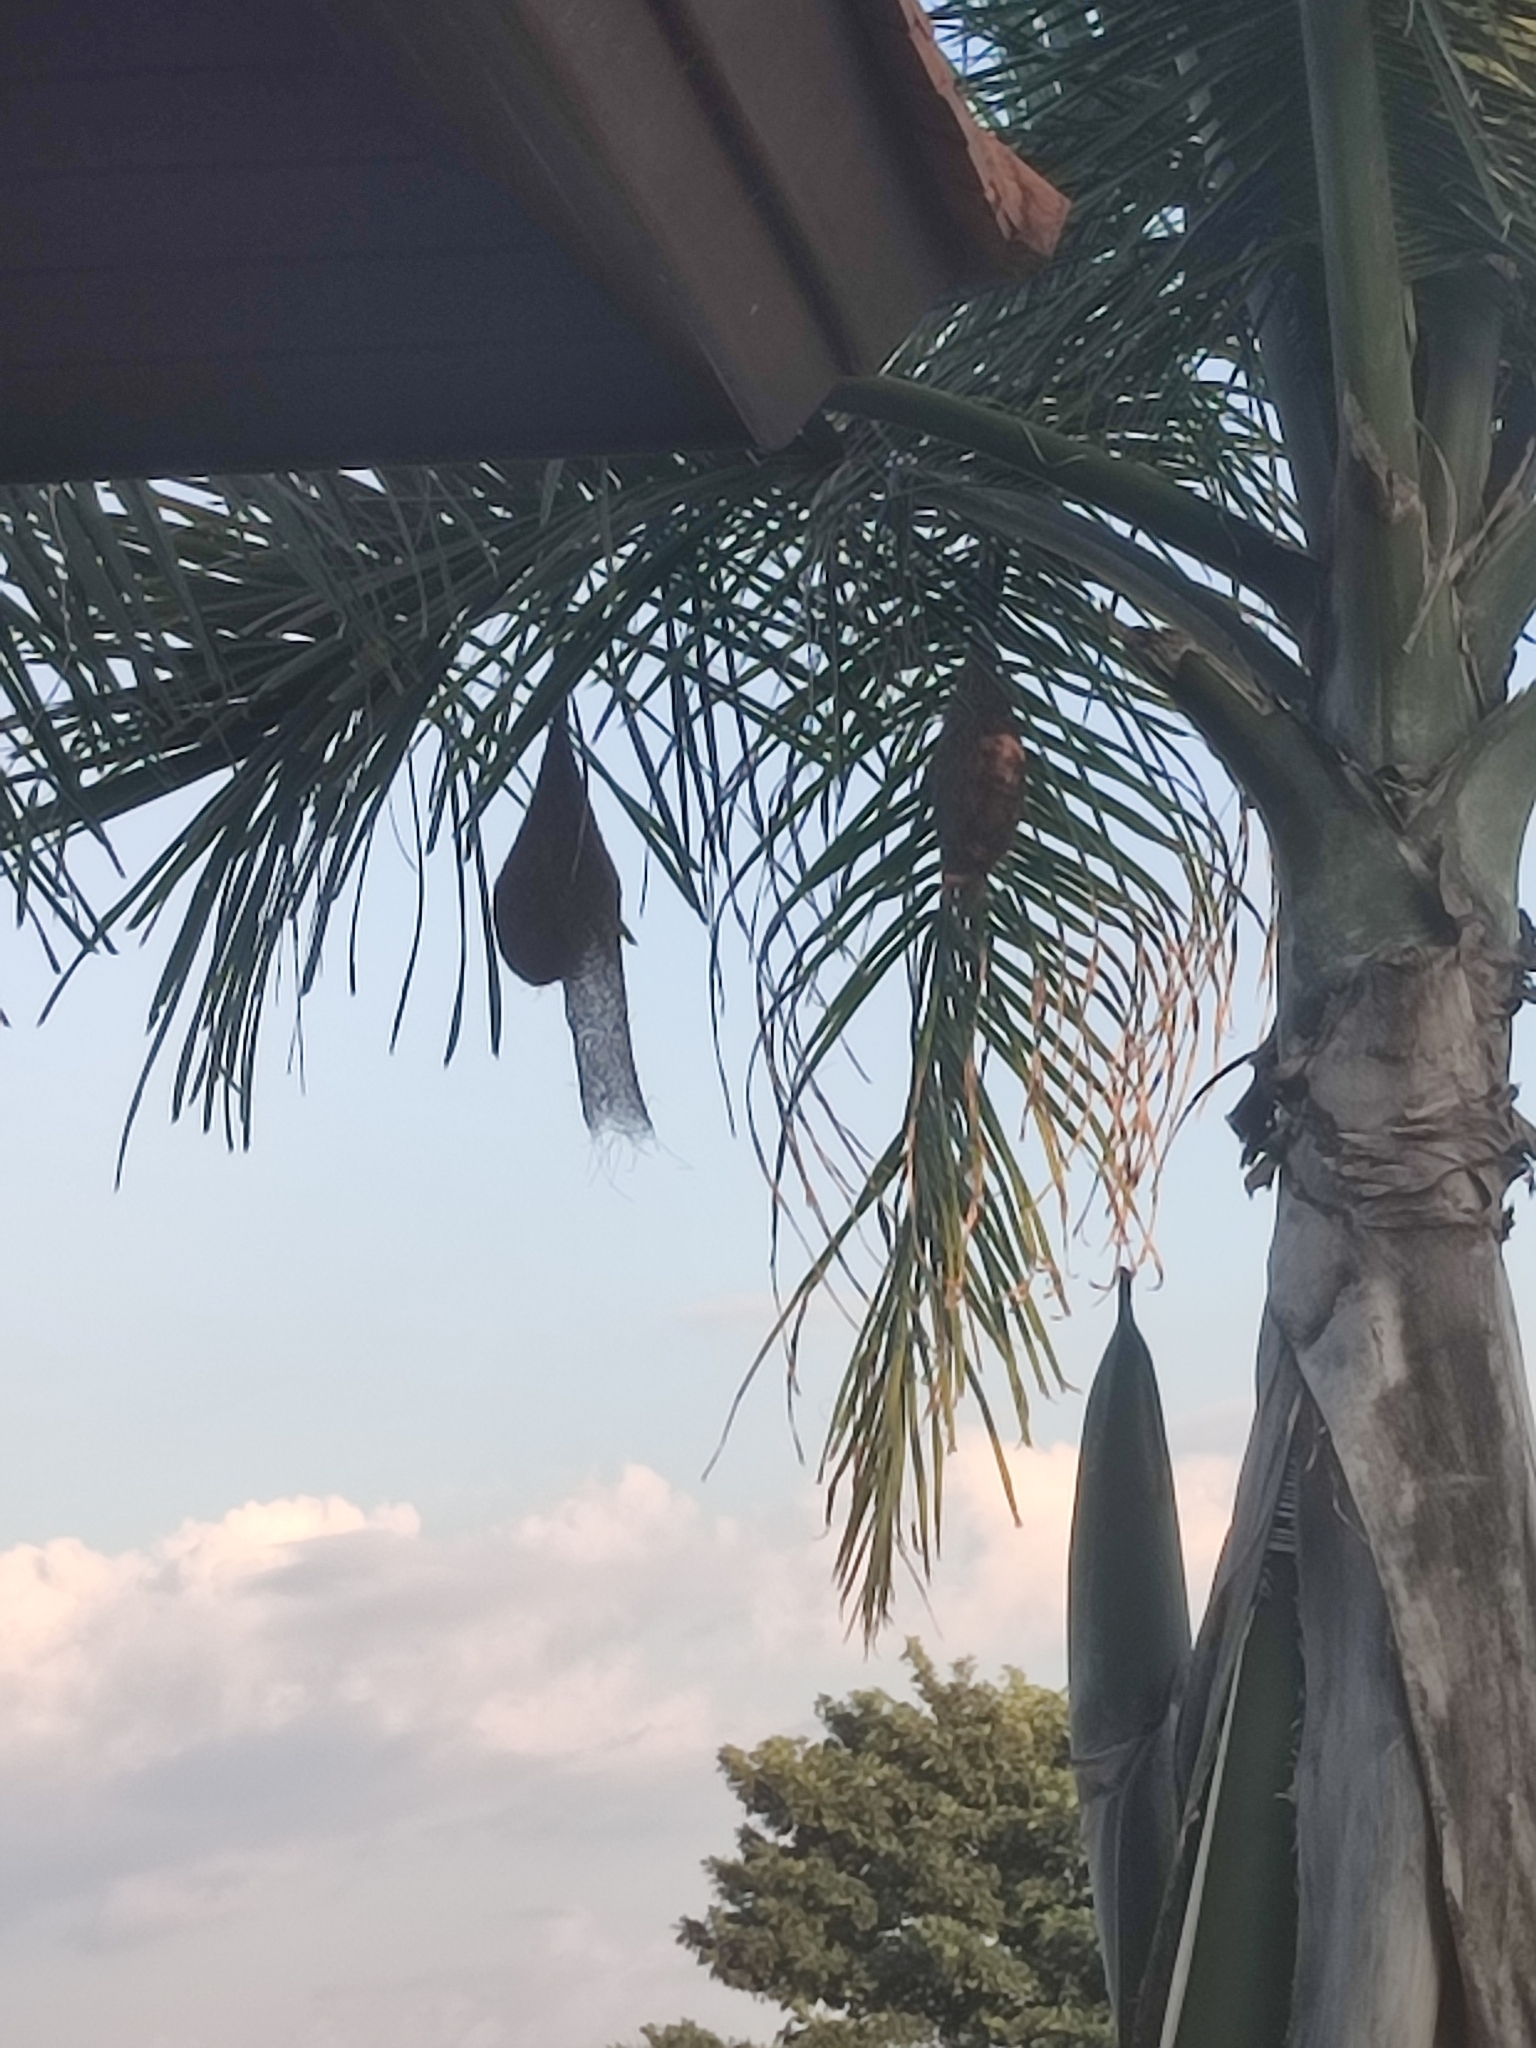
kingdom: Animalia
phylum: Chordata
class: Aves
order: Passeriformes
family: Ploceidae
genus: Ploceus
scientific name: Ploceus philippinus
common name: Baya weaver
